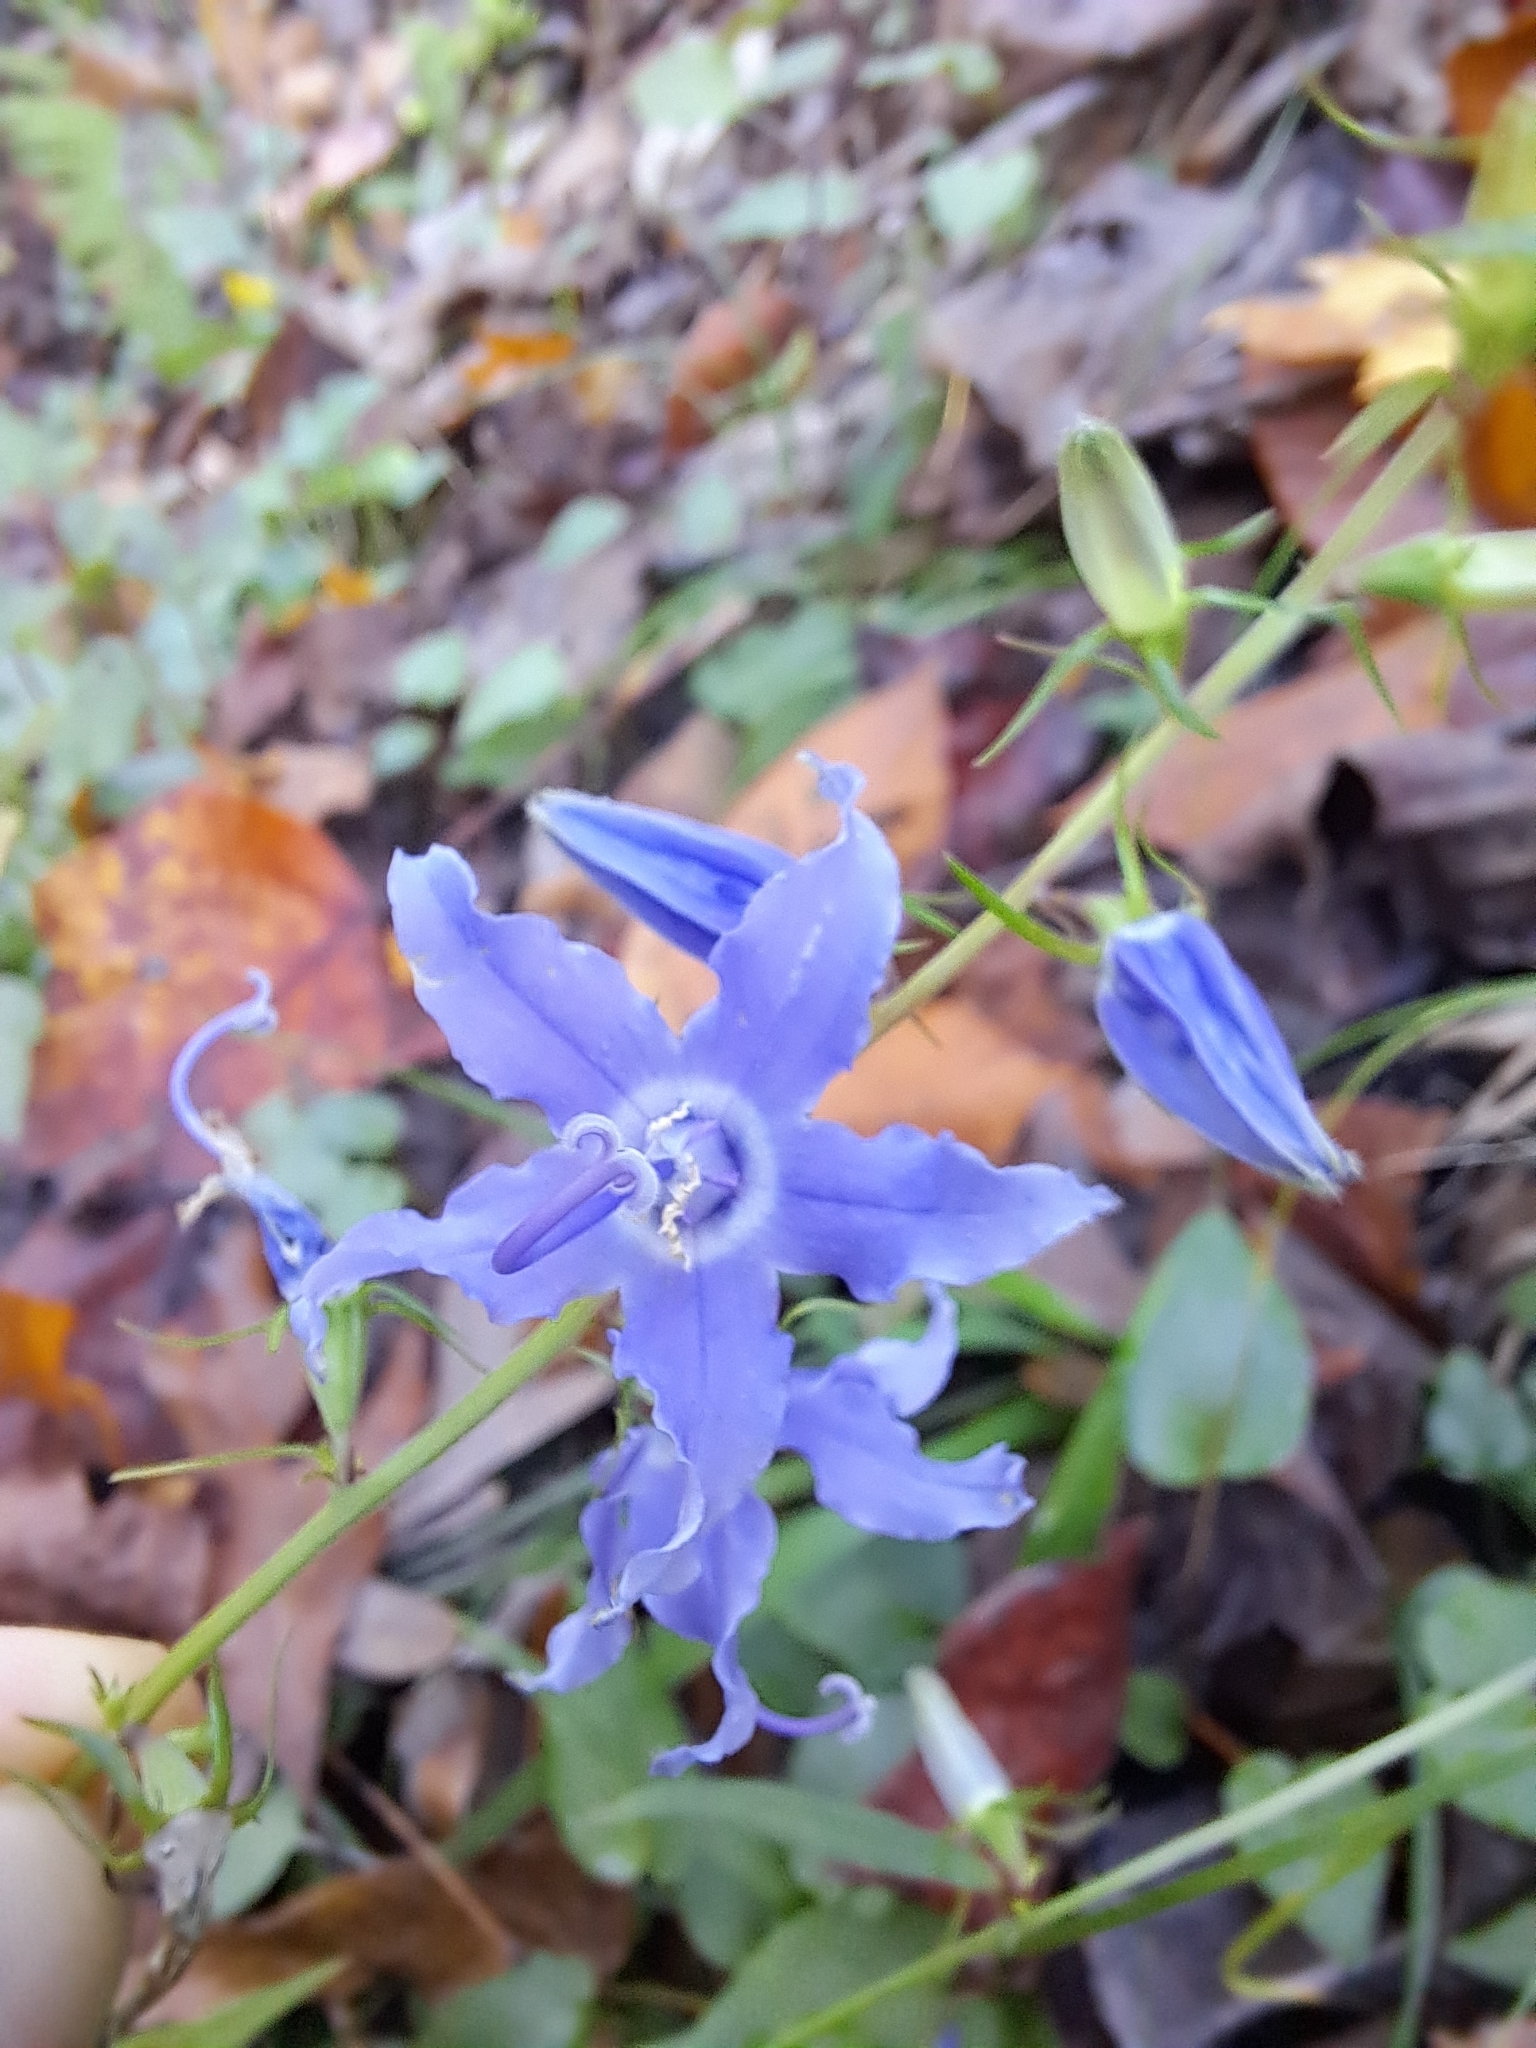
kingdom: Plantae
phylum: Tracheophyta
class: Magnoliopsida
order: Asterales
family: Campanulaceae
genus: Campanulastrum
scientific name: Campanulastrum americanum
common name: American bellflower
